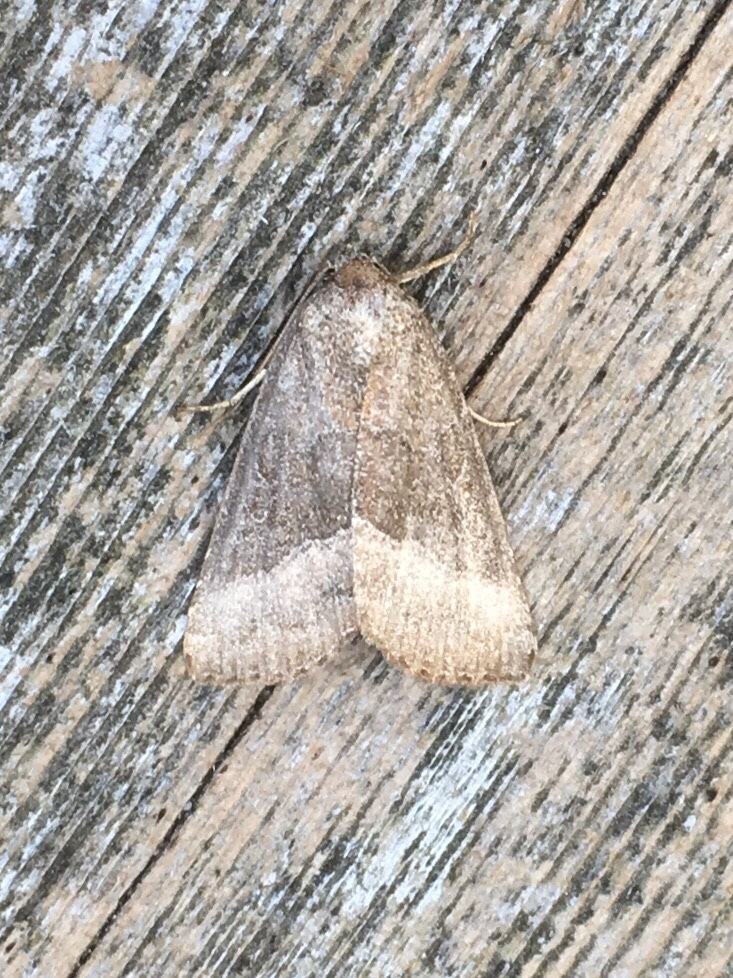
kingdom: Animalia
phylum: Arthropoda
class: Insecta
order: Lepidoptera
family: Noctuidae
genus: Ogdoconta
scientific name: Ogdoconta cinereola
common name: Common pinkband
